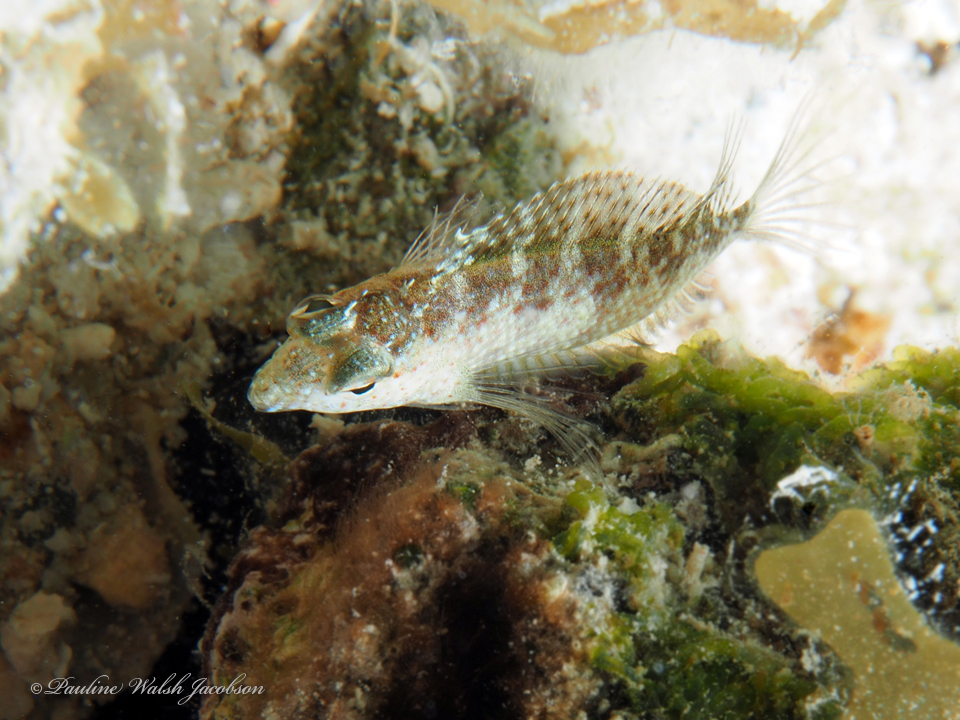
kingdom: Animalia
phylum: Chordata
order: Perciformes
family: Labrisomidae
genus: Malacoctenus
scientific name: Malacoctenus macropus
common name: Rosy blenny
